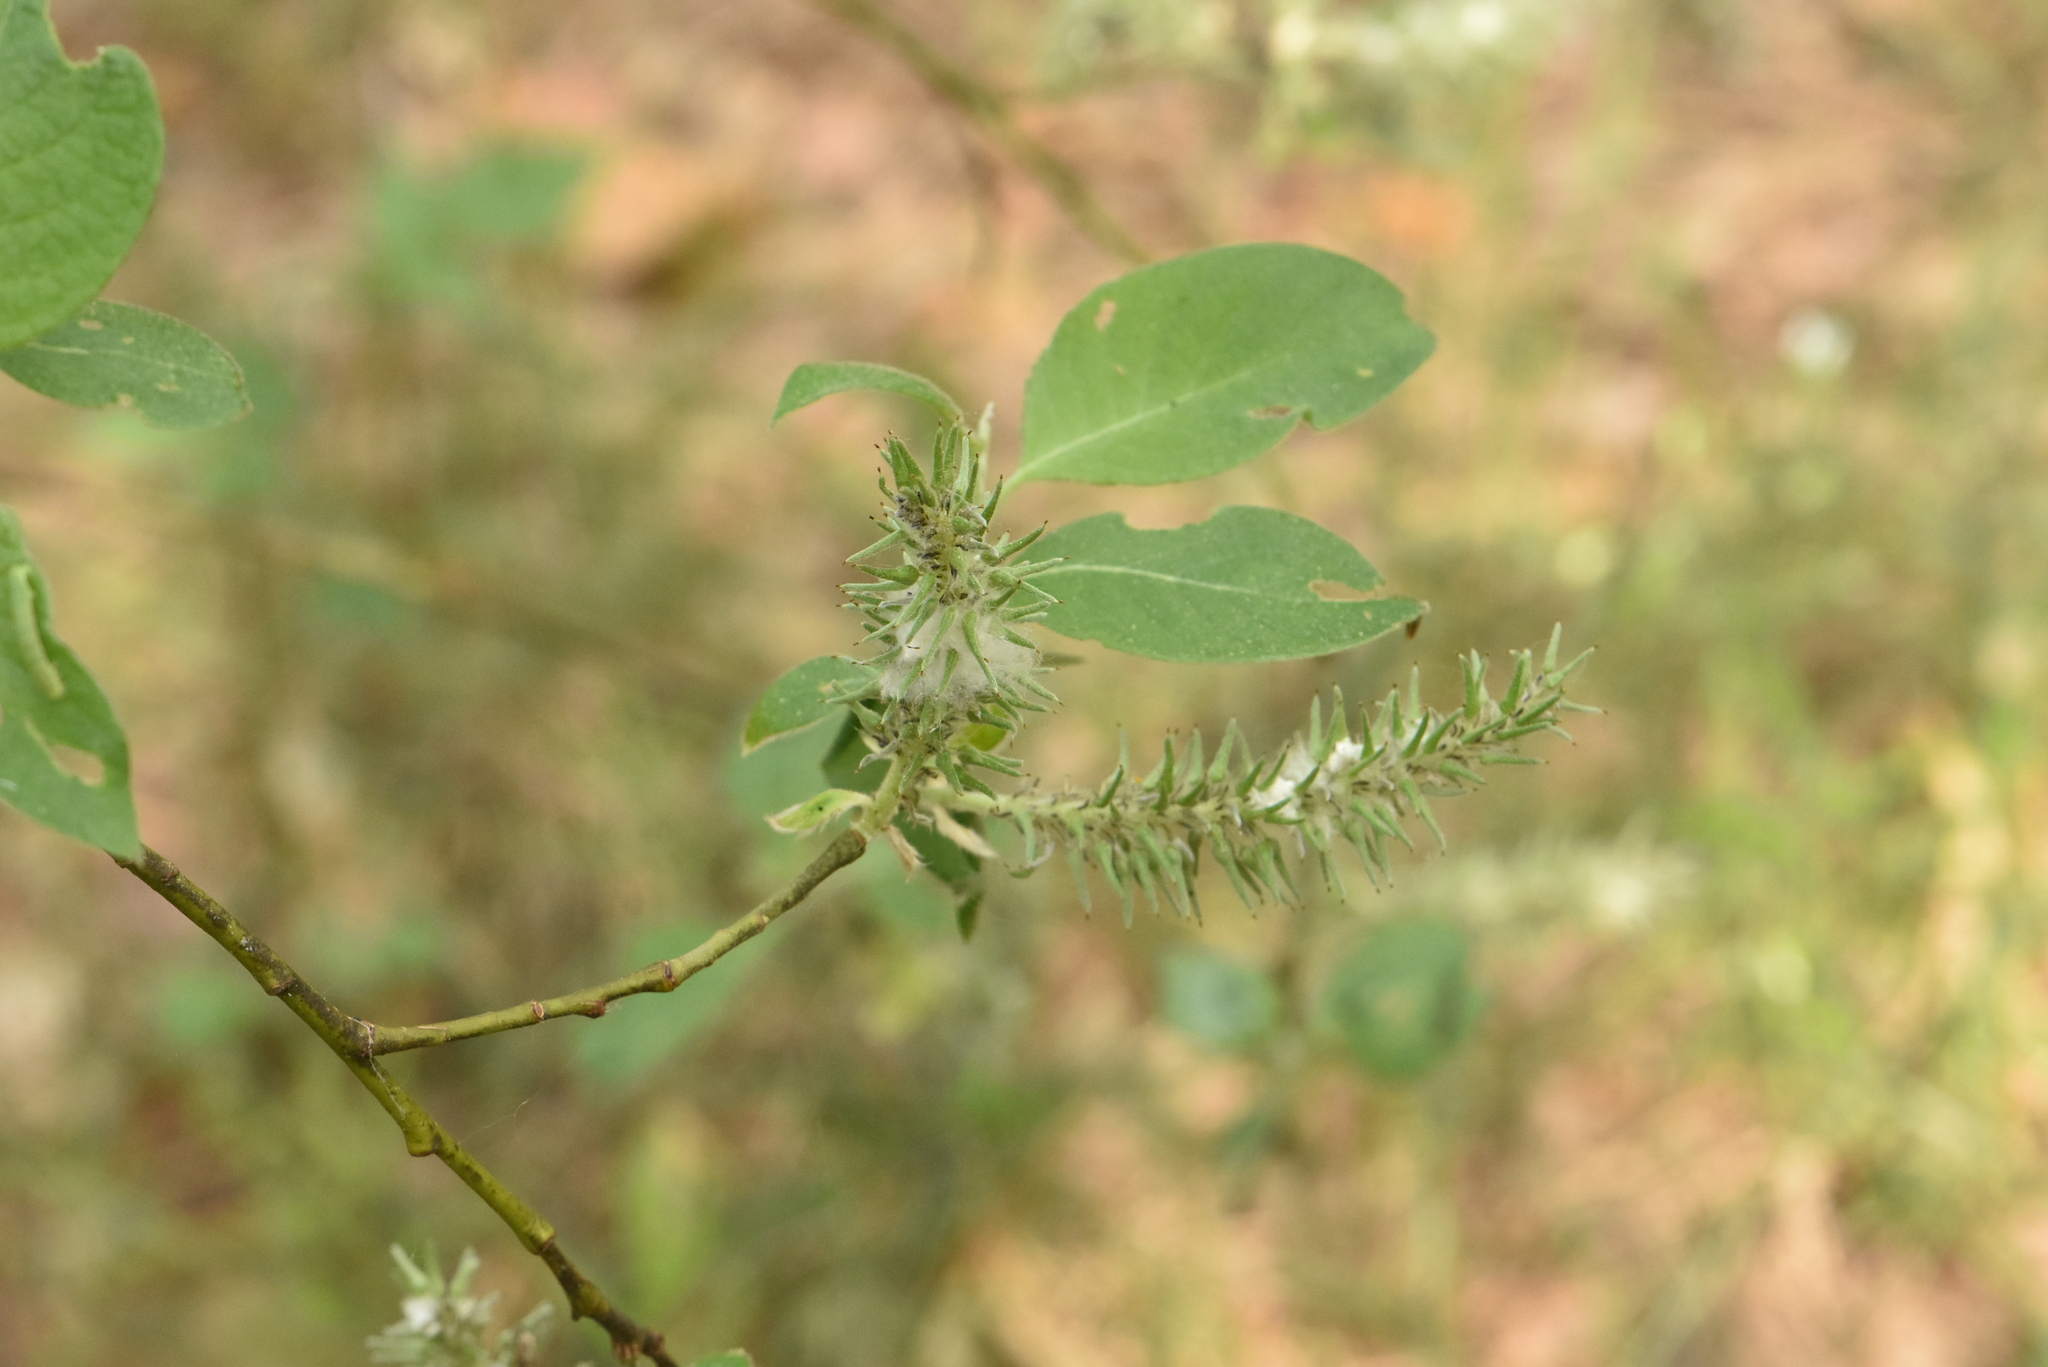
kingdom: Plantae
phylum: Tracheophyta
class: Magnoliopsida
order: Malpighiales
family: Salicaceae
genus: Salix
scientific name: Salix caprea
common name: Goat willow
